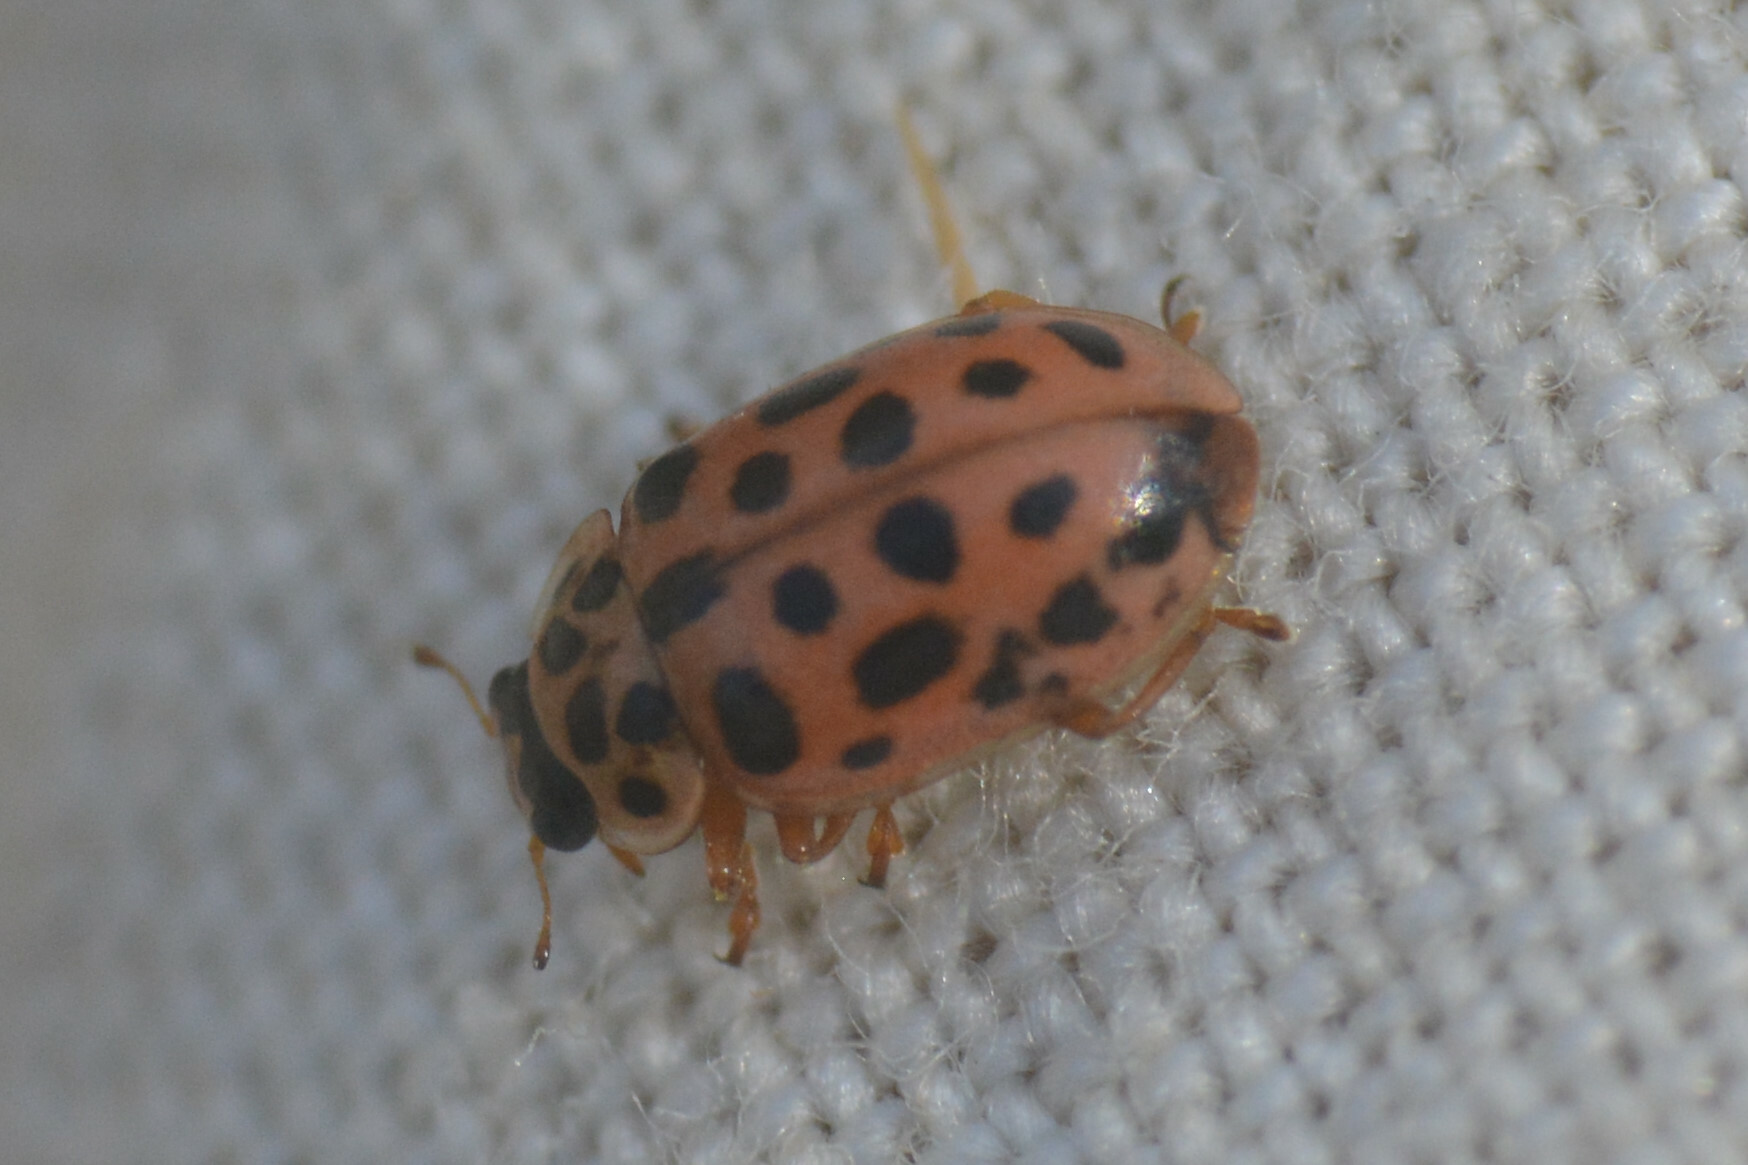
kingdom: Animalia
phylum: Arthropoda
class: Insecta
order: Coleoptera
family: Coccinellidae
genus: Anisosticta
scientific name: Anisosticta novemdecimpunctata
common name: Water ladybird
